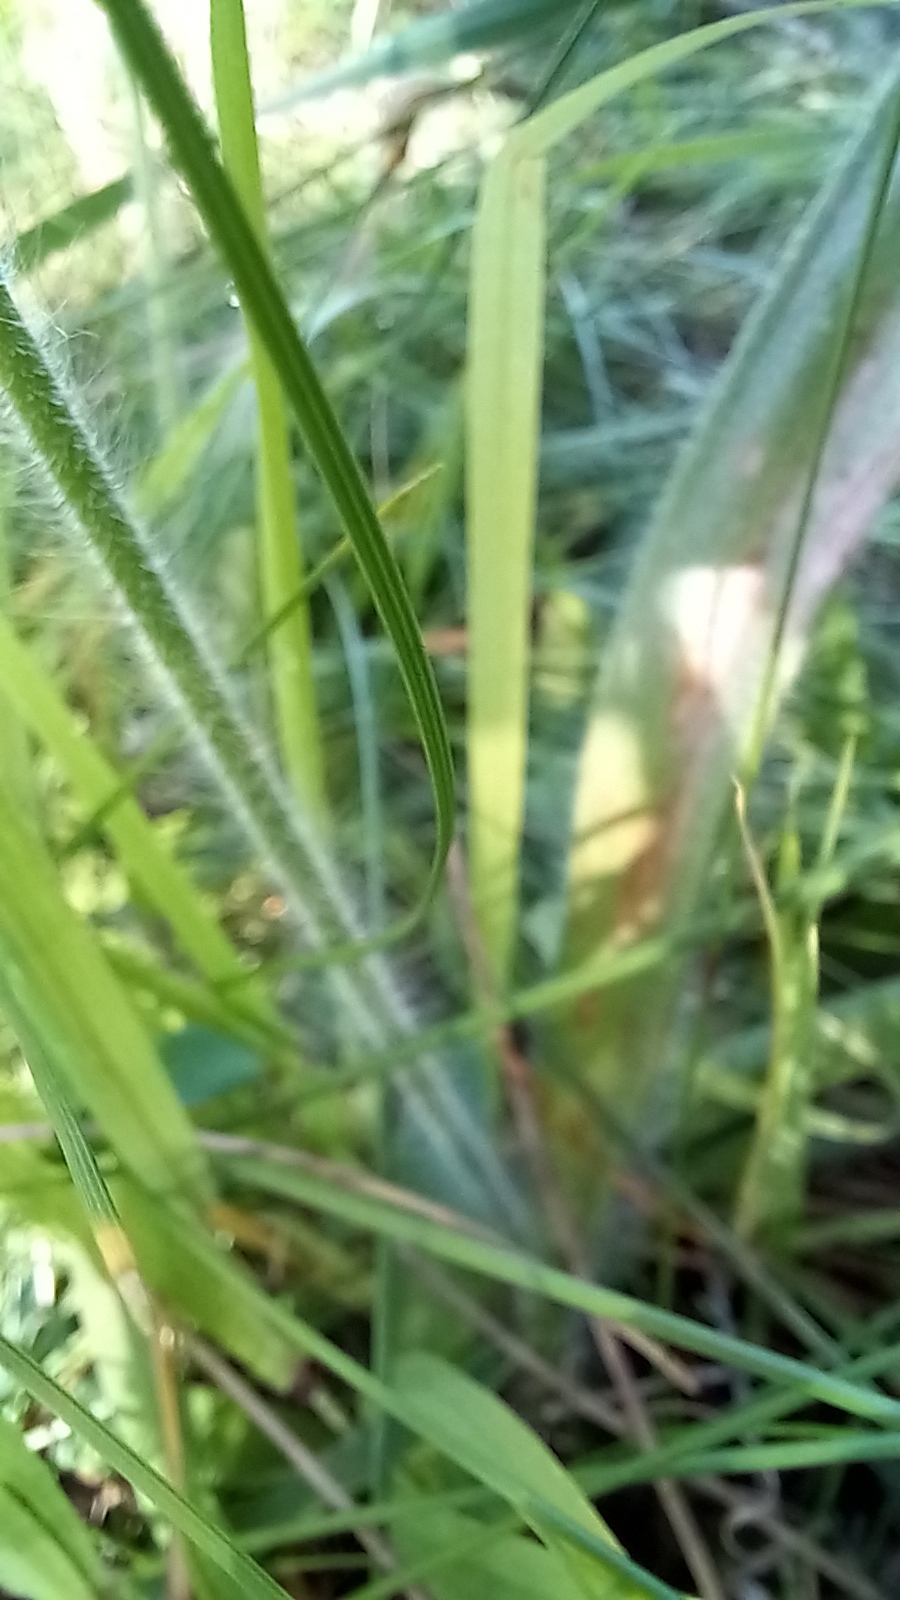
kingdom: Plantae
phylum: Tracheophyta
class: Liliopsida
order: Asparagales
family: Orchidaceae
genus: Caladenia
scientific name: Caladenia arenicola
